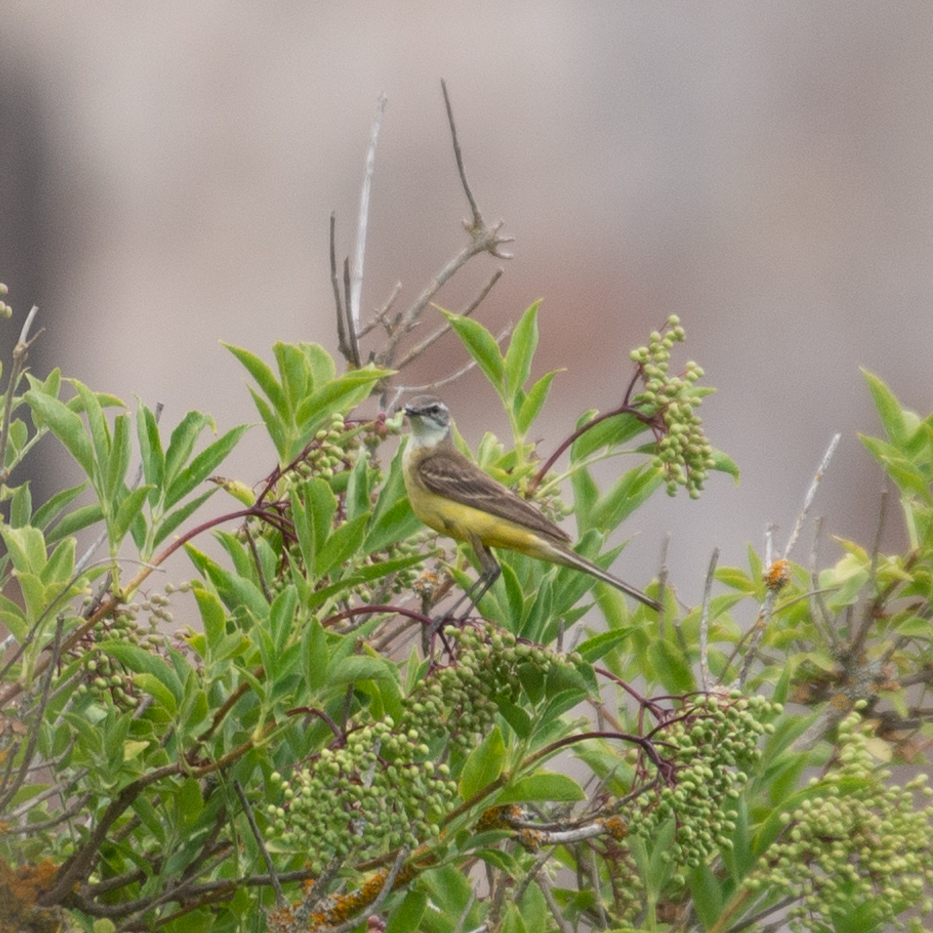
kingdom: Animalia
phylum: Chordata
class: Aves
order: Passeriformes
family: Motacillidae
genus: Motacilla
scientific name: Motacilla flava
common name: Western yellow wagtail
